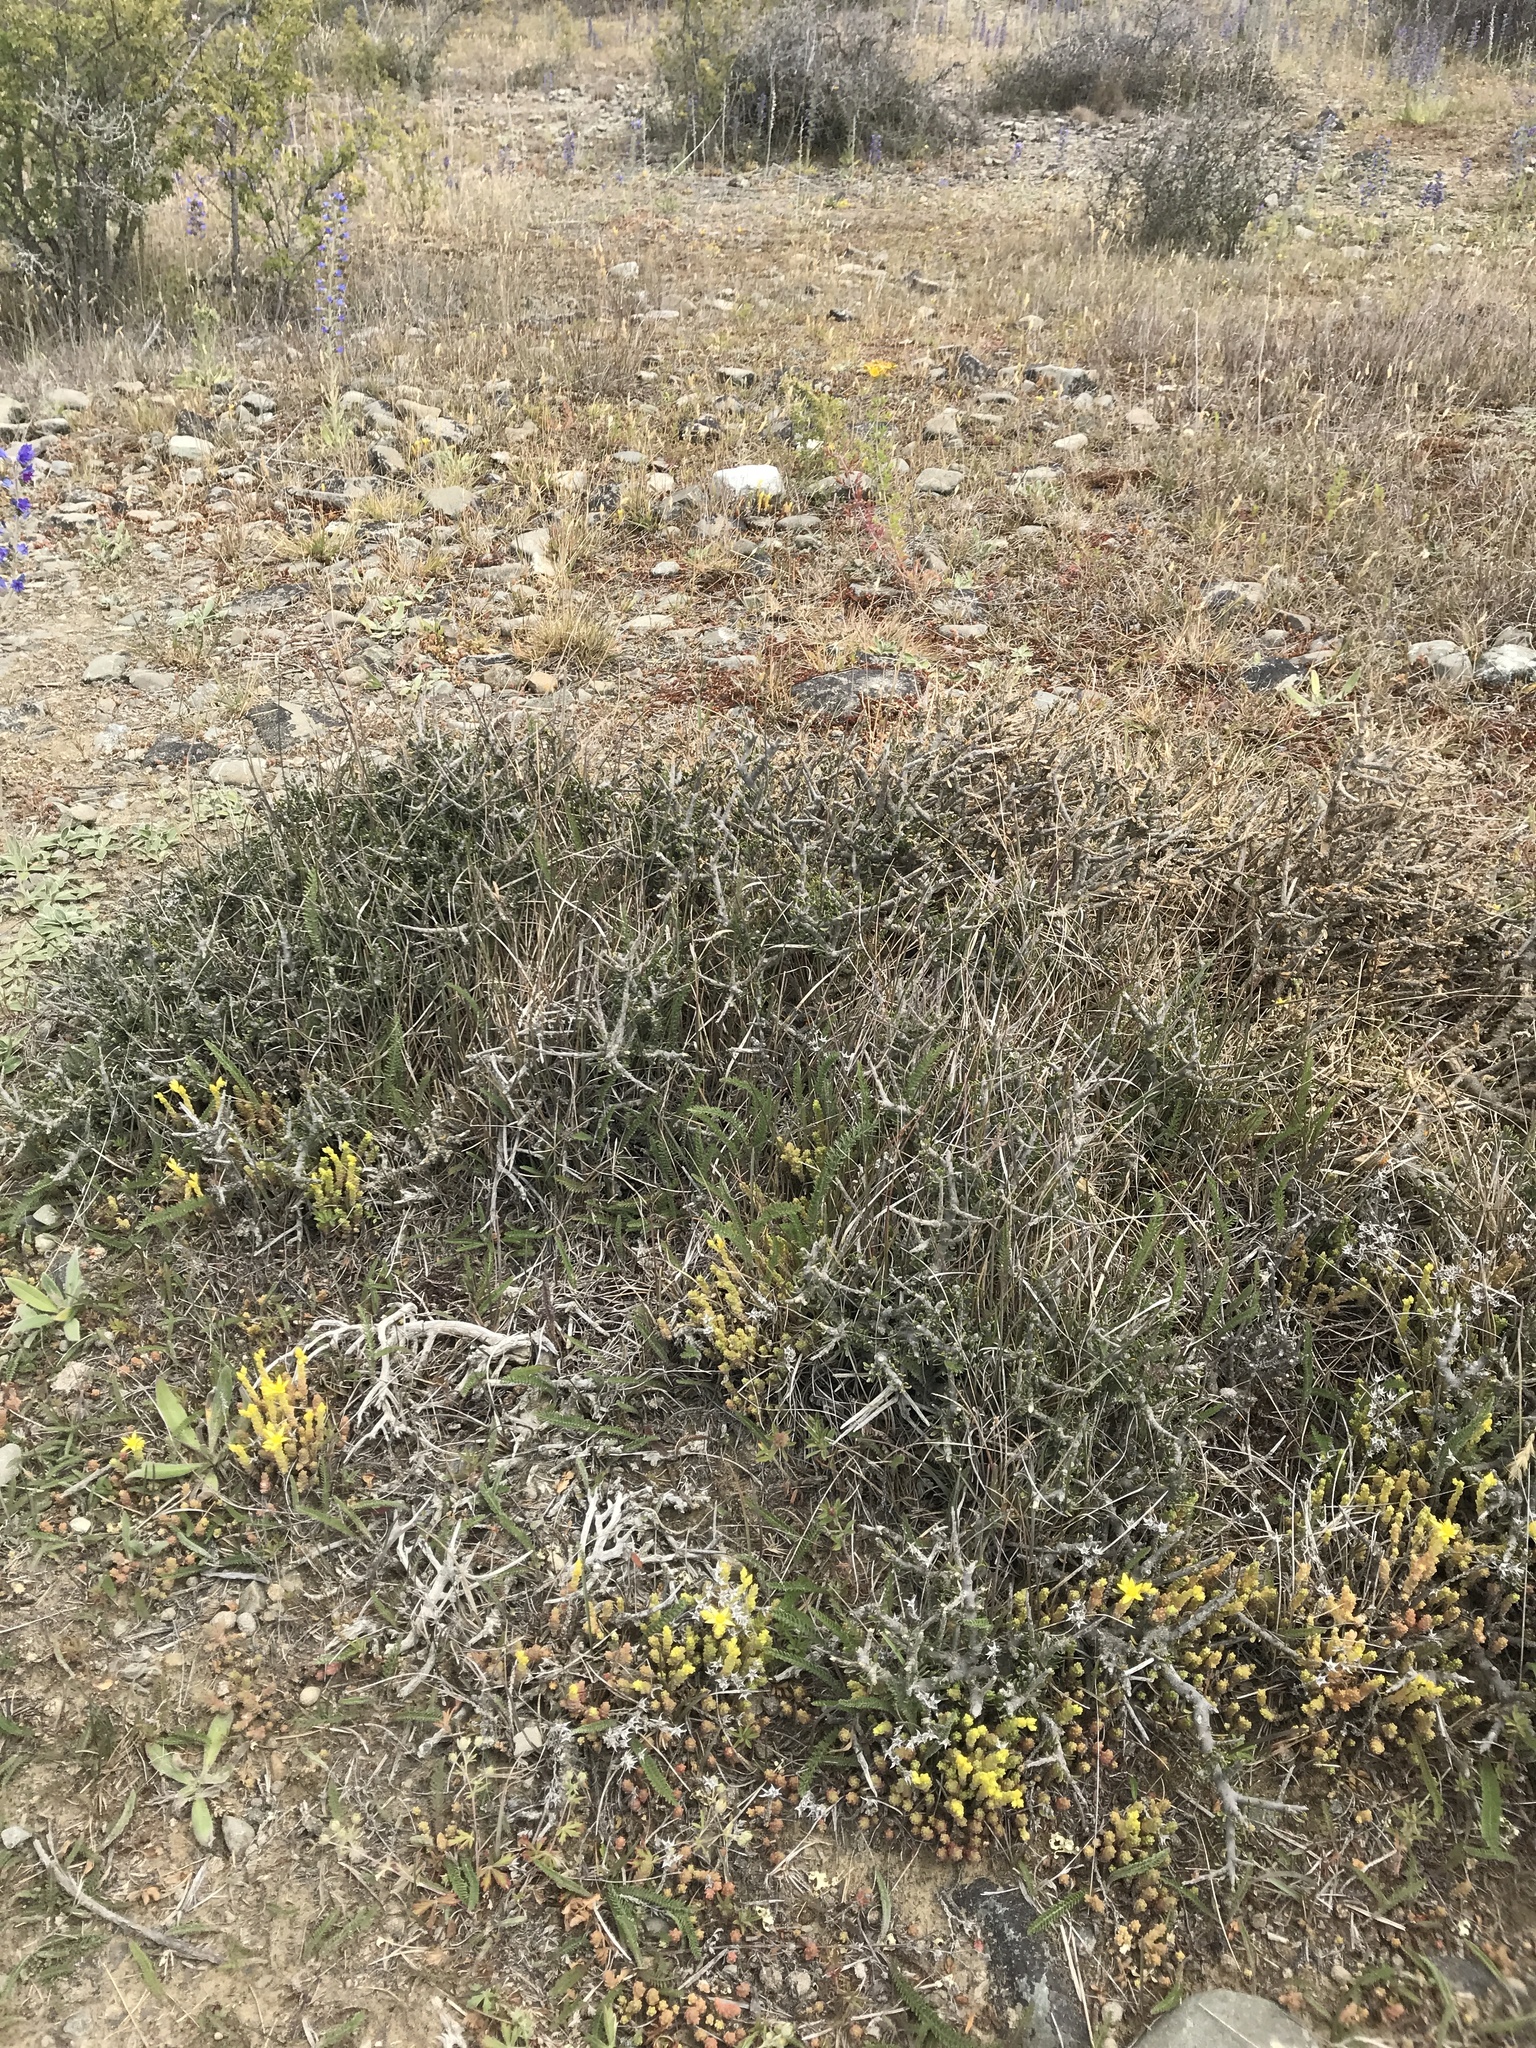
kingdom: Plantae
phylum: Tracheophyta
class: Magnoliopsida
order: Malpighiales
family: Violaceae
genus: Melicytus
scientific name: Melicytus alpinus
